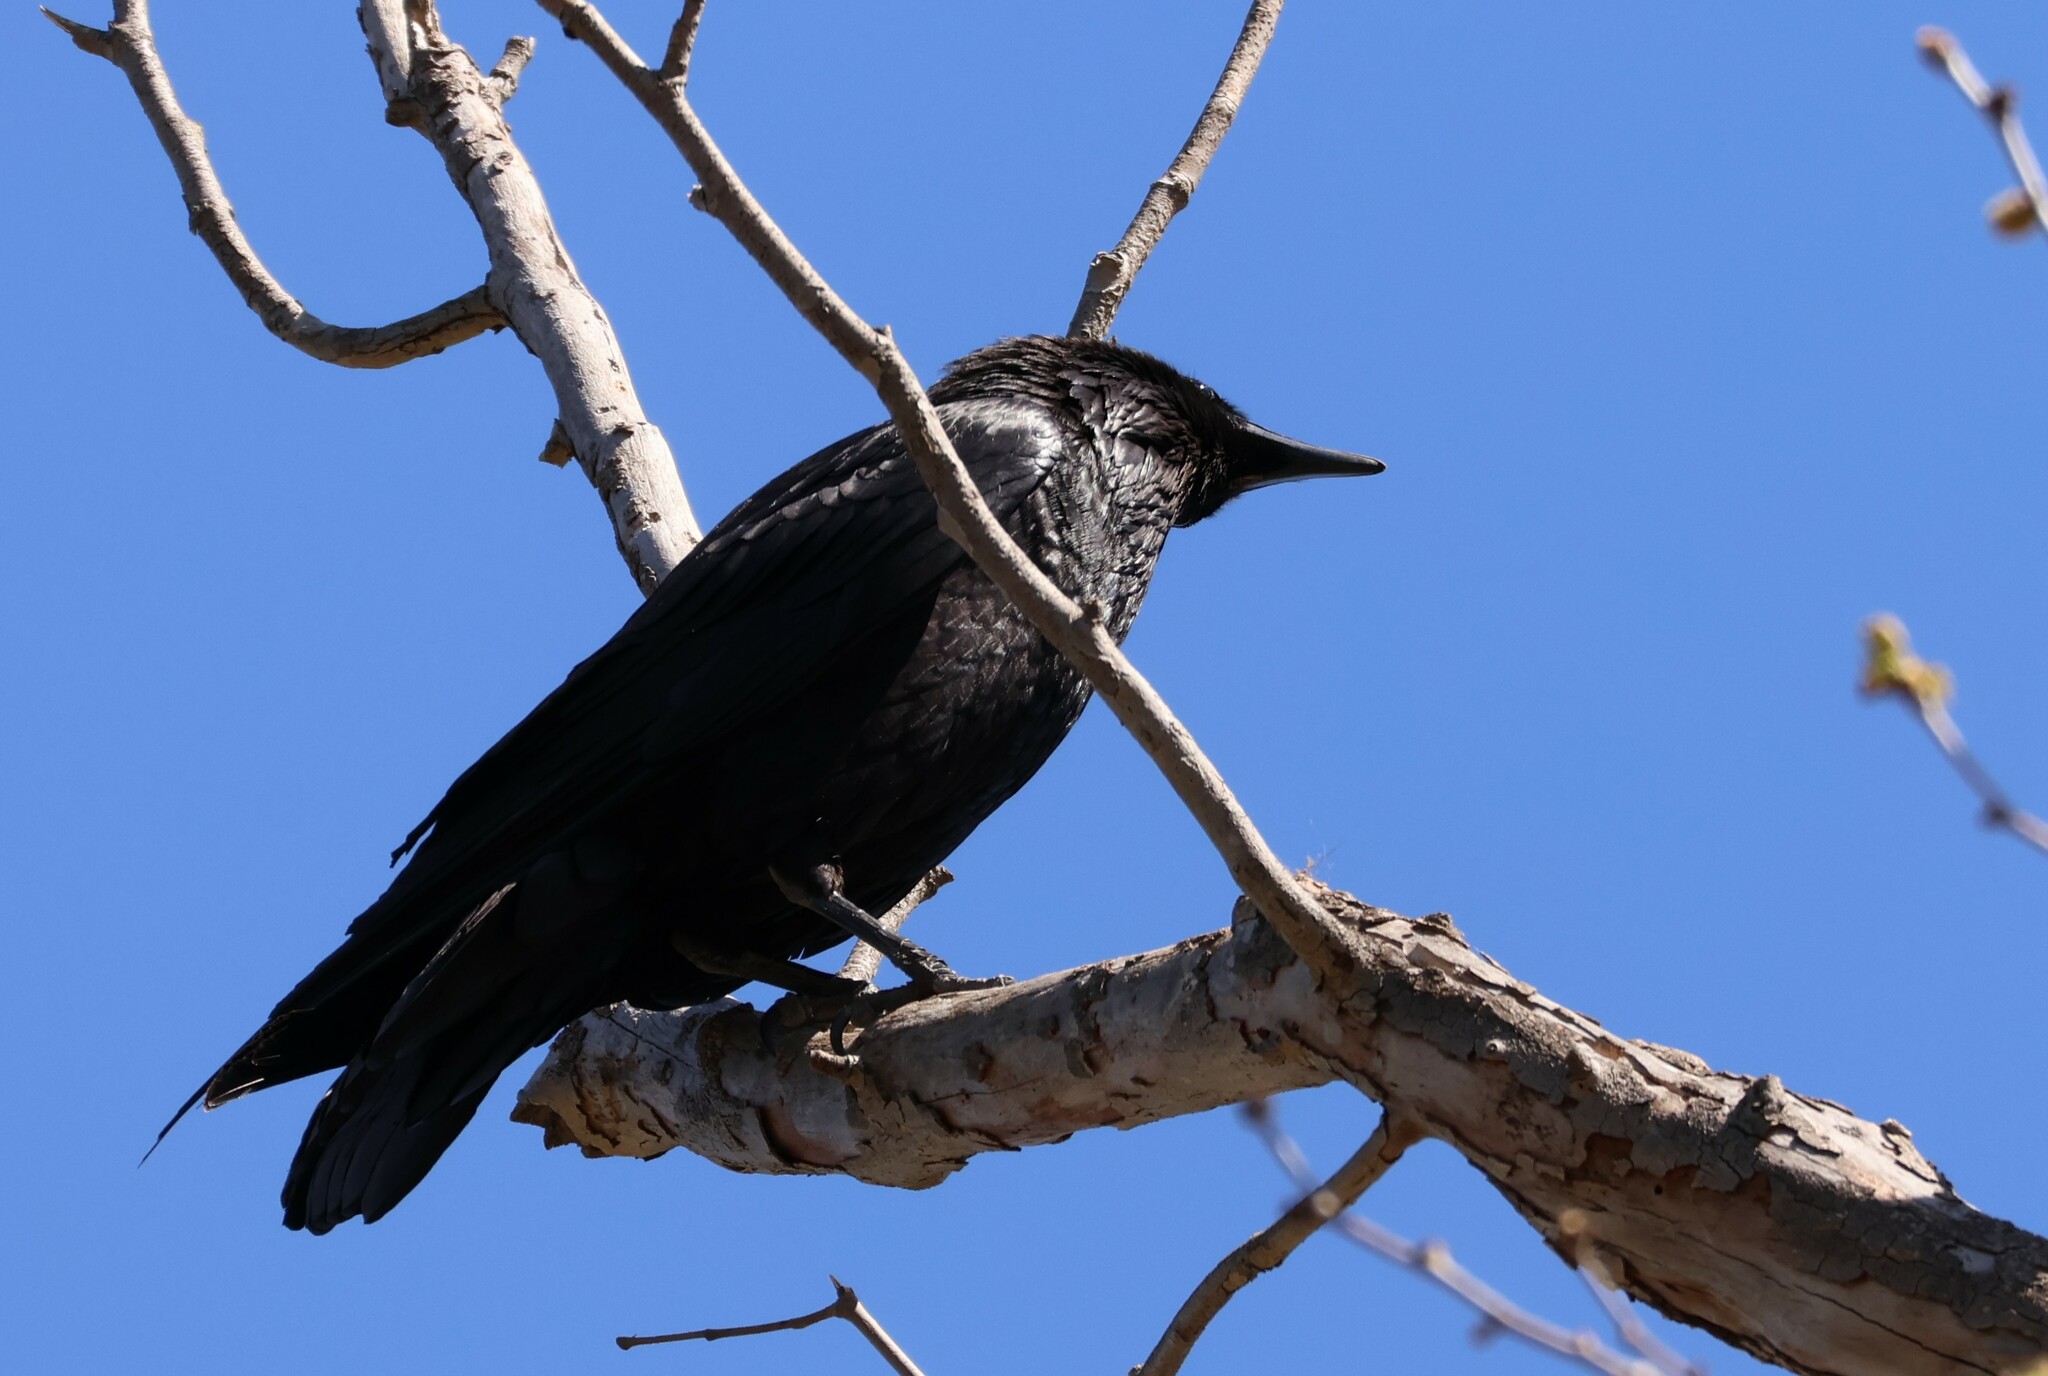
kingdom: Animalia
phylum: Chordata
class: Aves
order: Passeriformes
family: Corvidae
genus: Corvus
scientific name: Corvus corax
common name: Common raven
